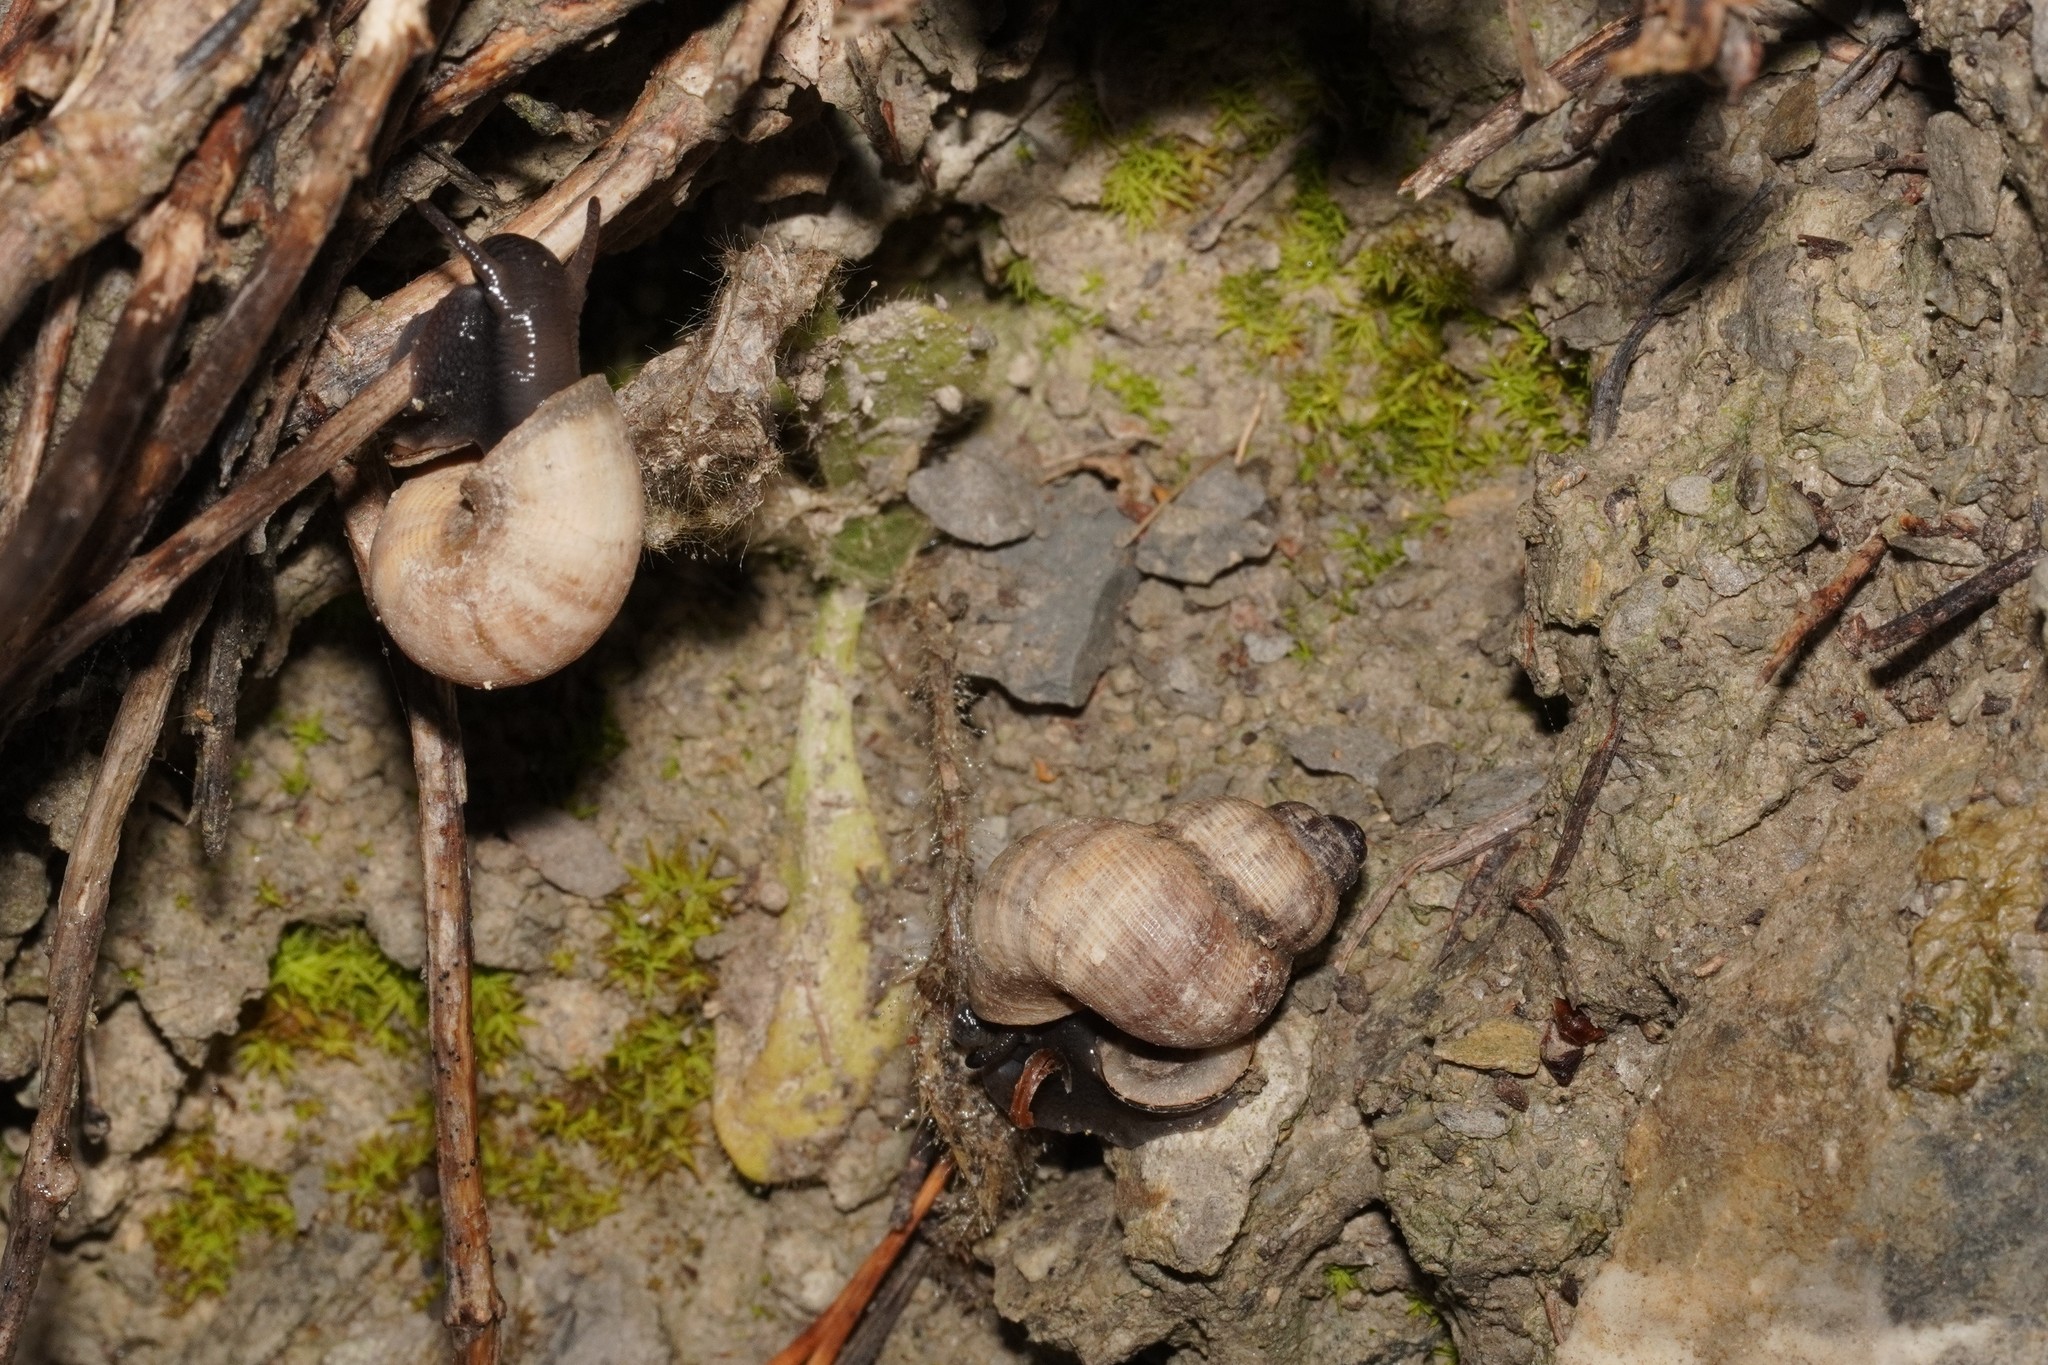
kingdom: Animalia
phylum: Mollusca
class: Gastropoda
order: Littorinimorpha
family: Pomatiidae
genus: Pomatias
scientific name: Pomatias elegans
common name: Red-mouthed snail
